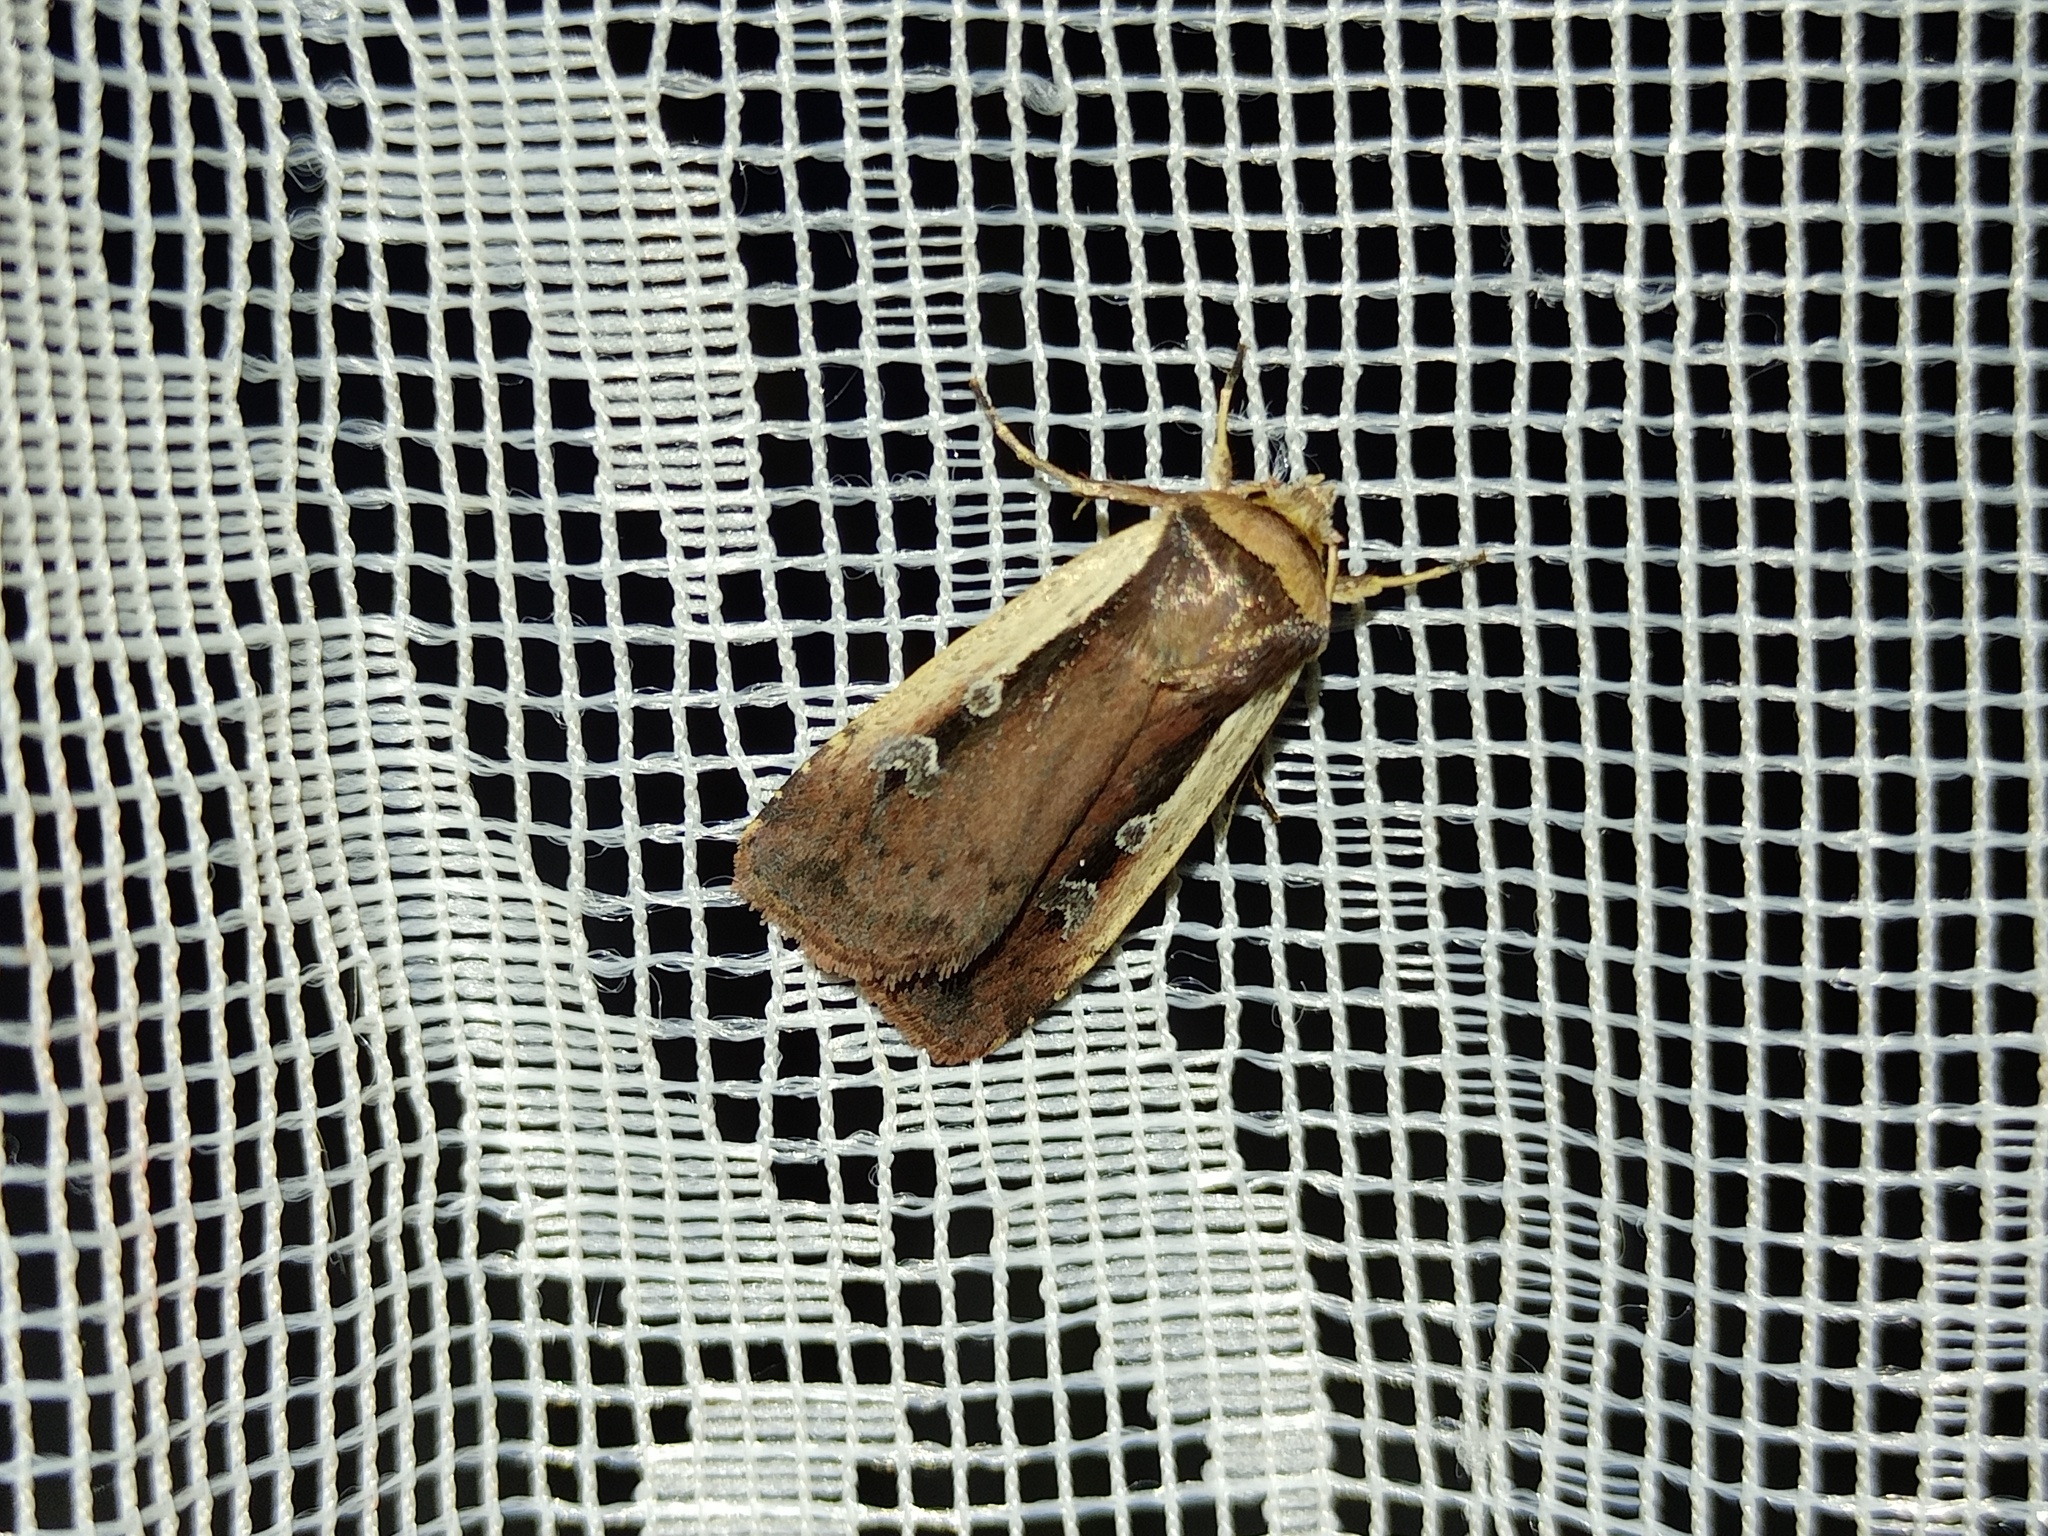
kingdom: Animalia
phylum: Arthropoda
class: Insecta
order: Lepidoptera
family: Noctuidae
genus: Ochropleura
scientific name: Ochropleura plecta
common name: Flame shoulder
